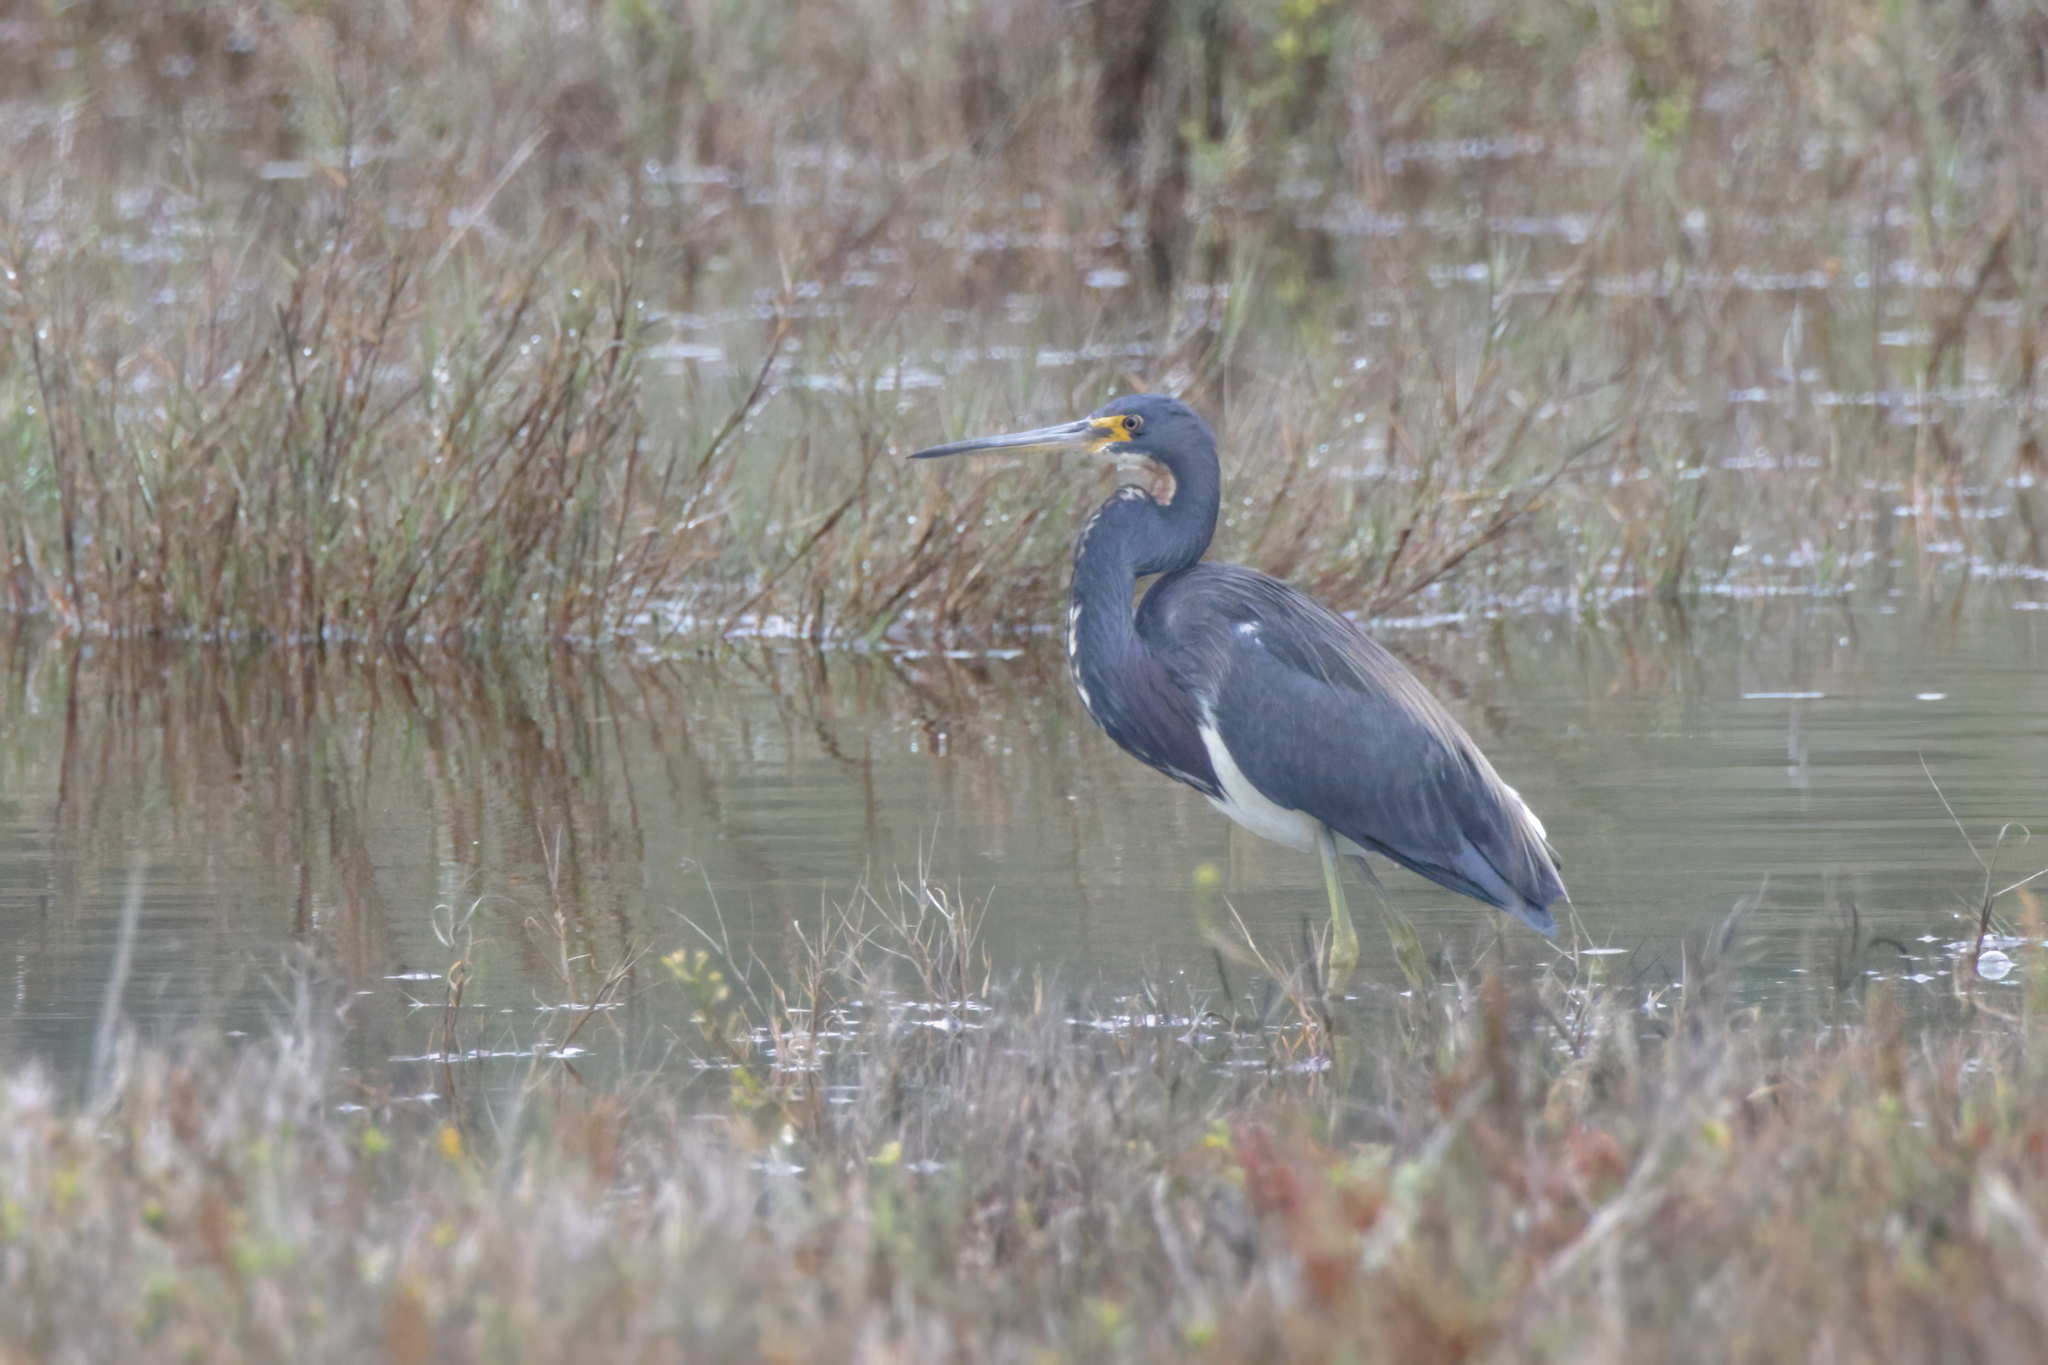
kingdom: Animalia
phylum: Chordata
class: Aves
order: Pelecaniformes
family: Ardeidae
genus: Egretta
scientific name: Egretta tricolor
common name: Tricolored heron
